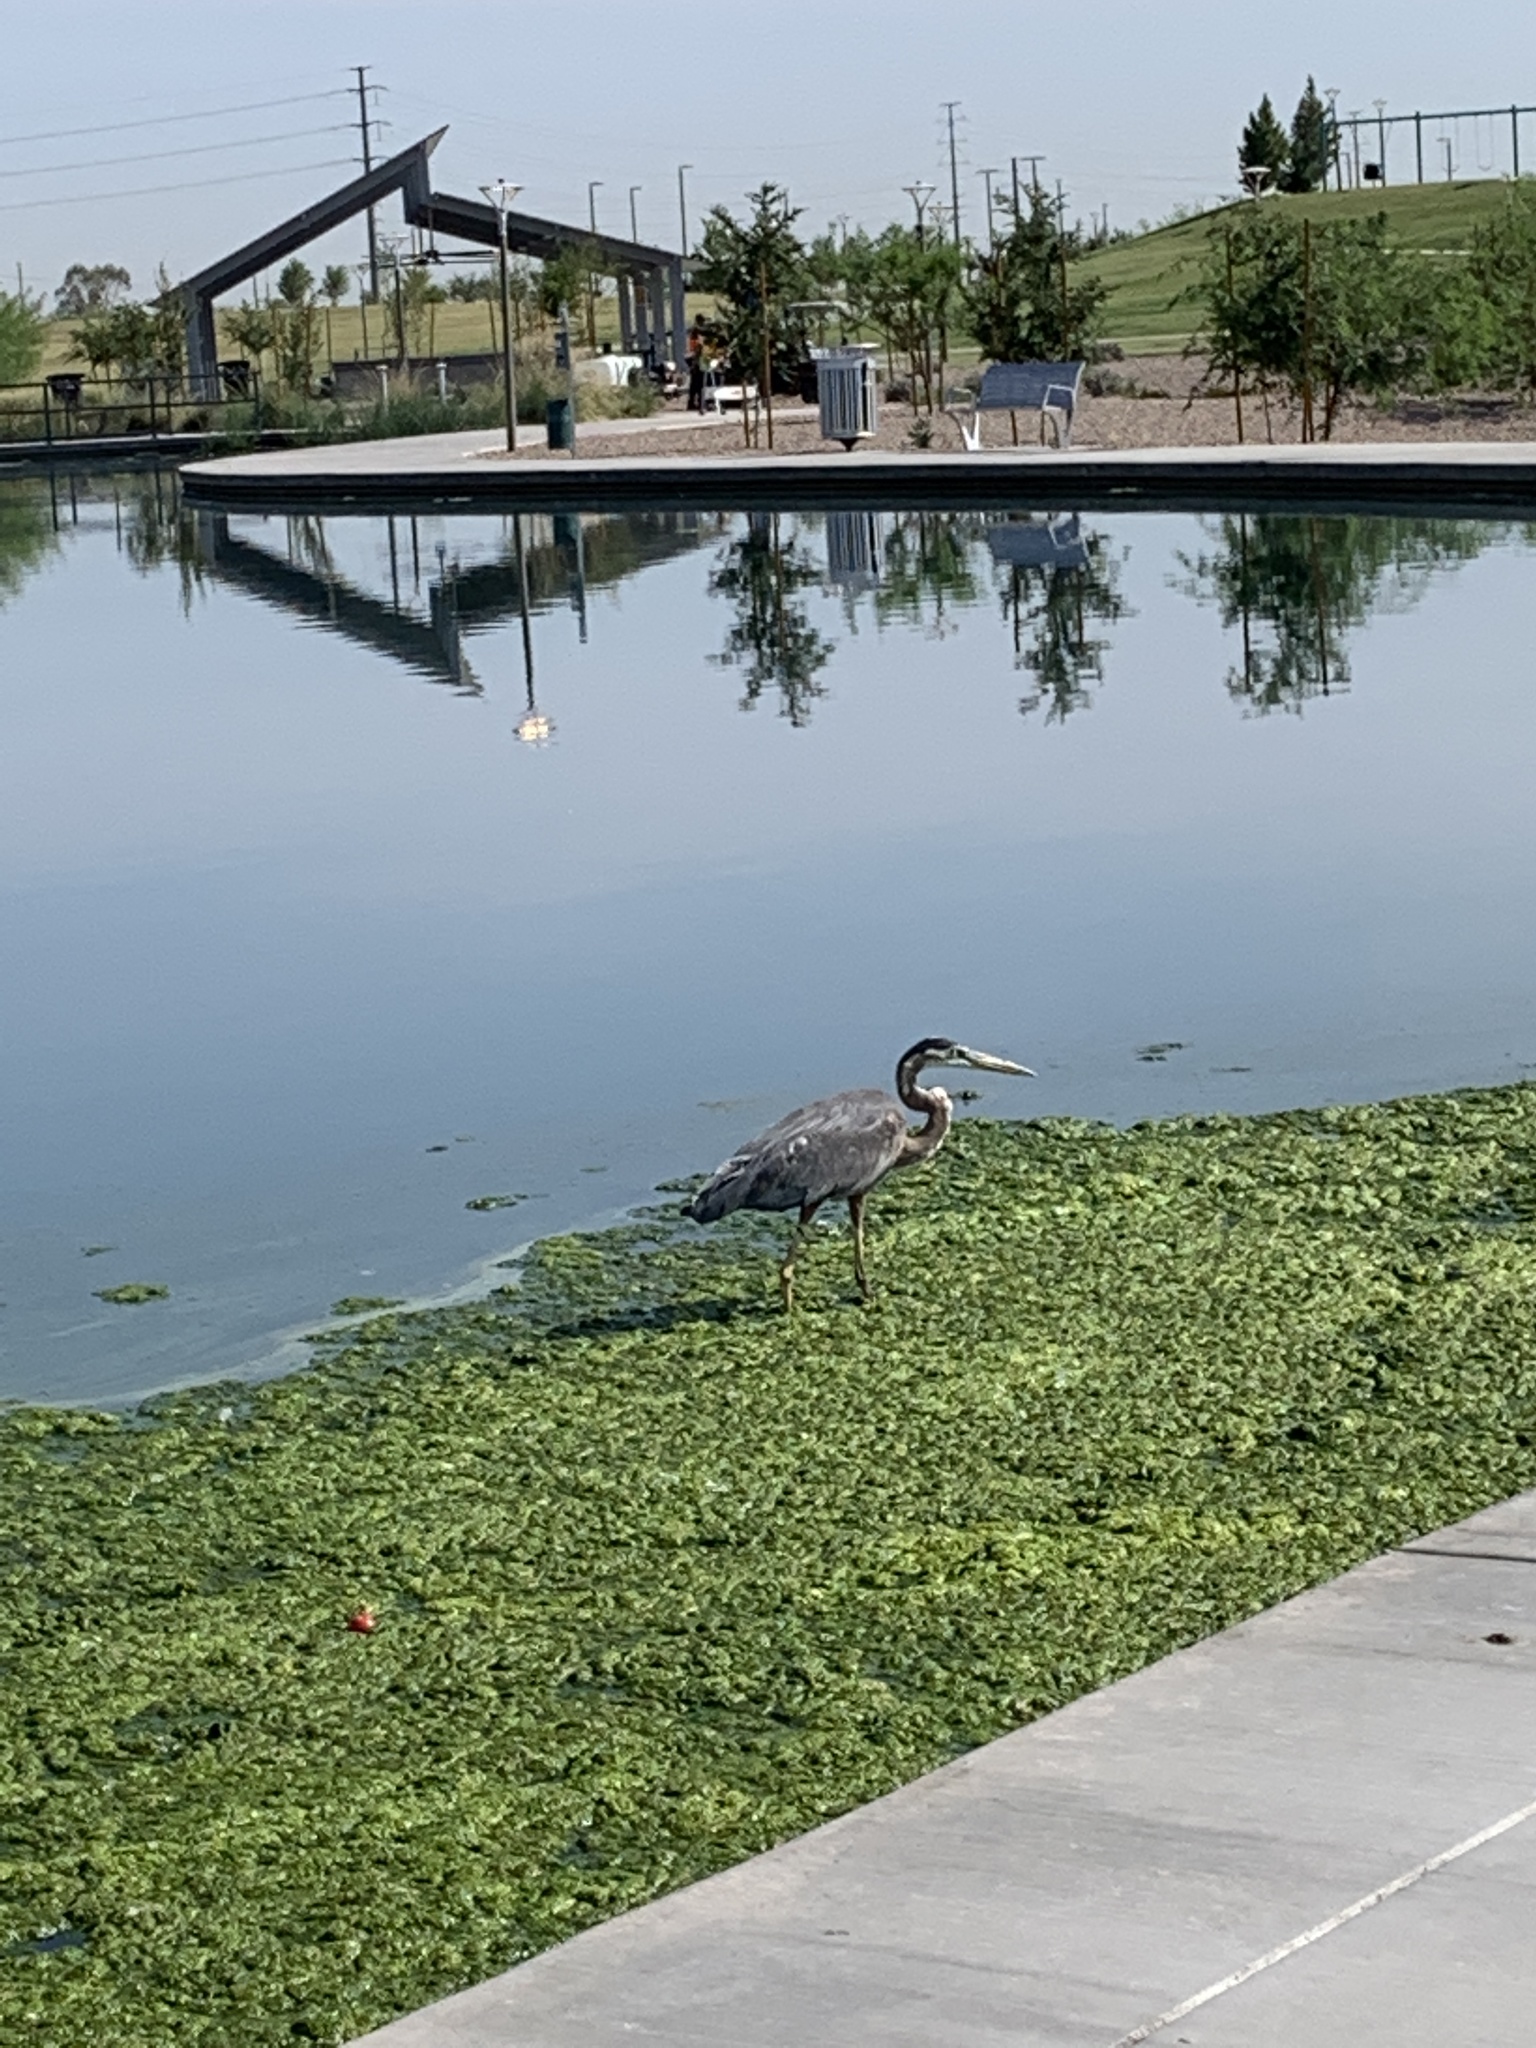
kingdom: Animalia
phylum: Chordata
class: Aves
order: Pelecaniformes
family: Ardeidae
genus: Ardea
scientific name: Ardea herodias
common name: Great blue heron
